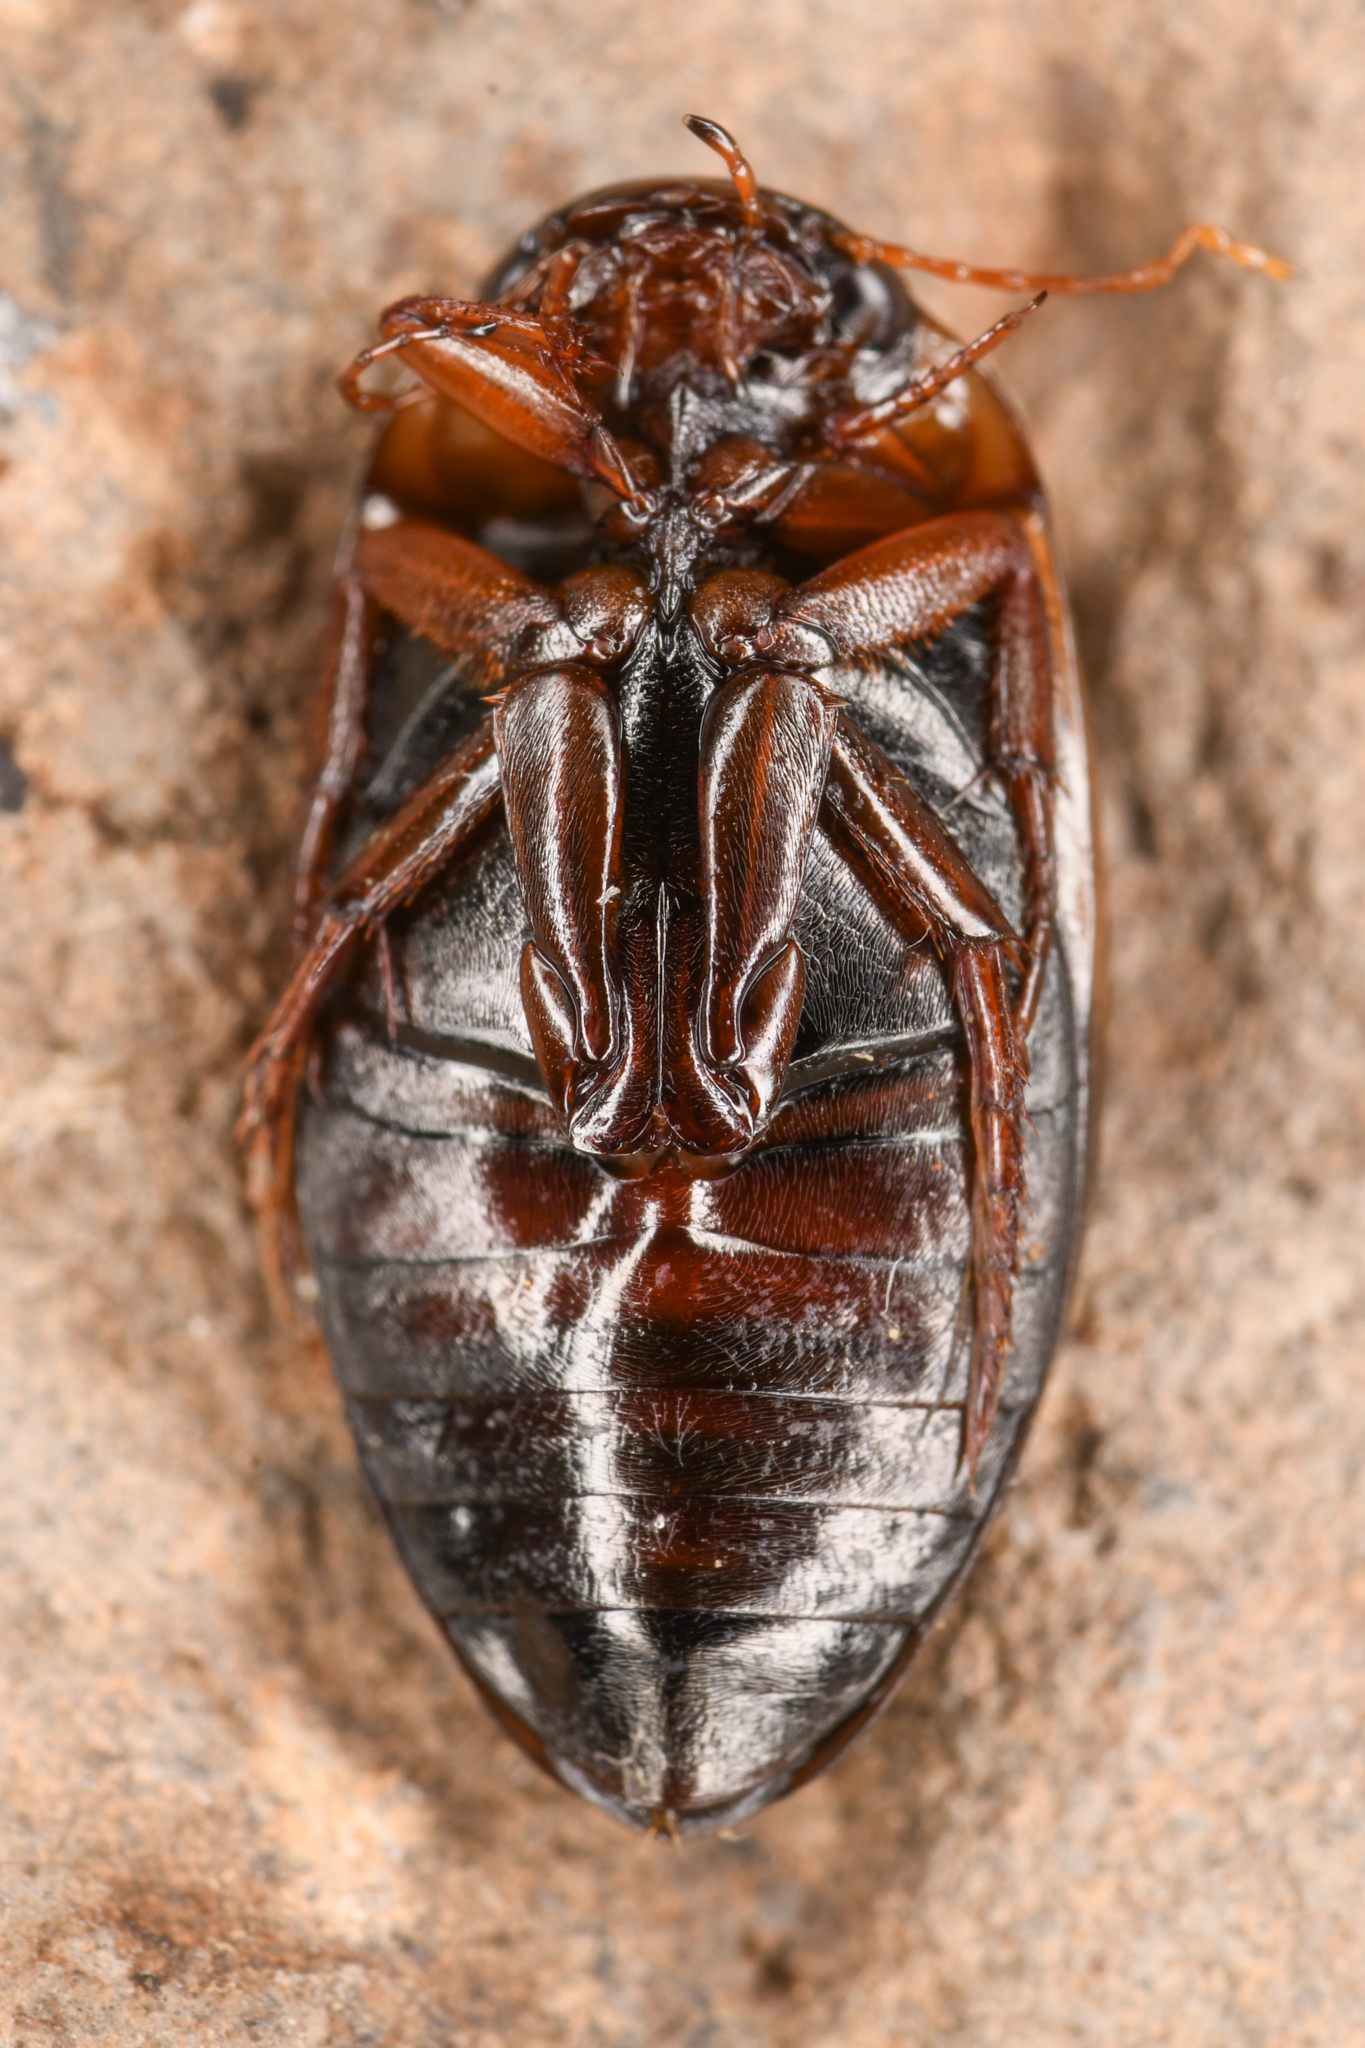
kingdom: Animalia
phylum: Arthropoda
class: Insecta
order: Coleoptera
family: Dytiscidae
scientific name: Dytiscidae
